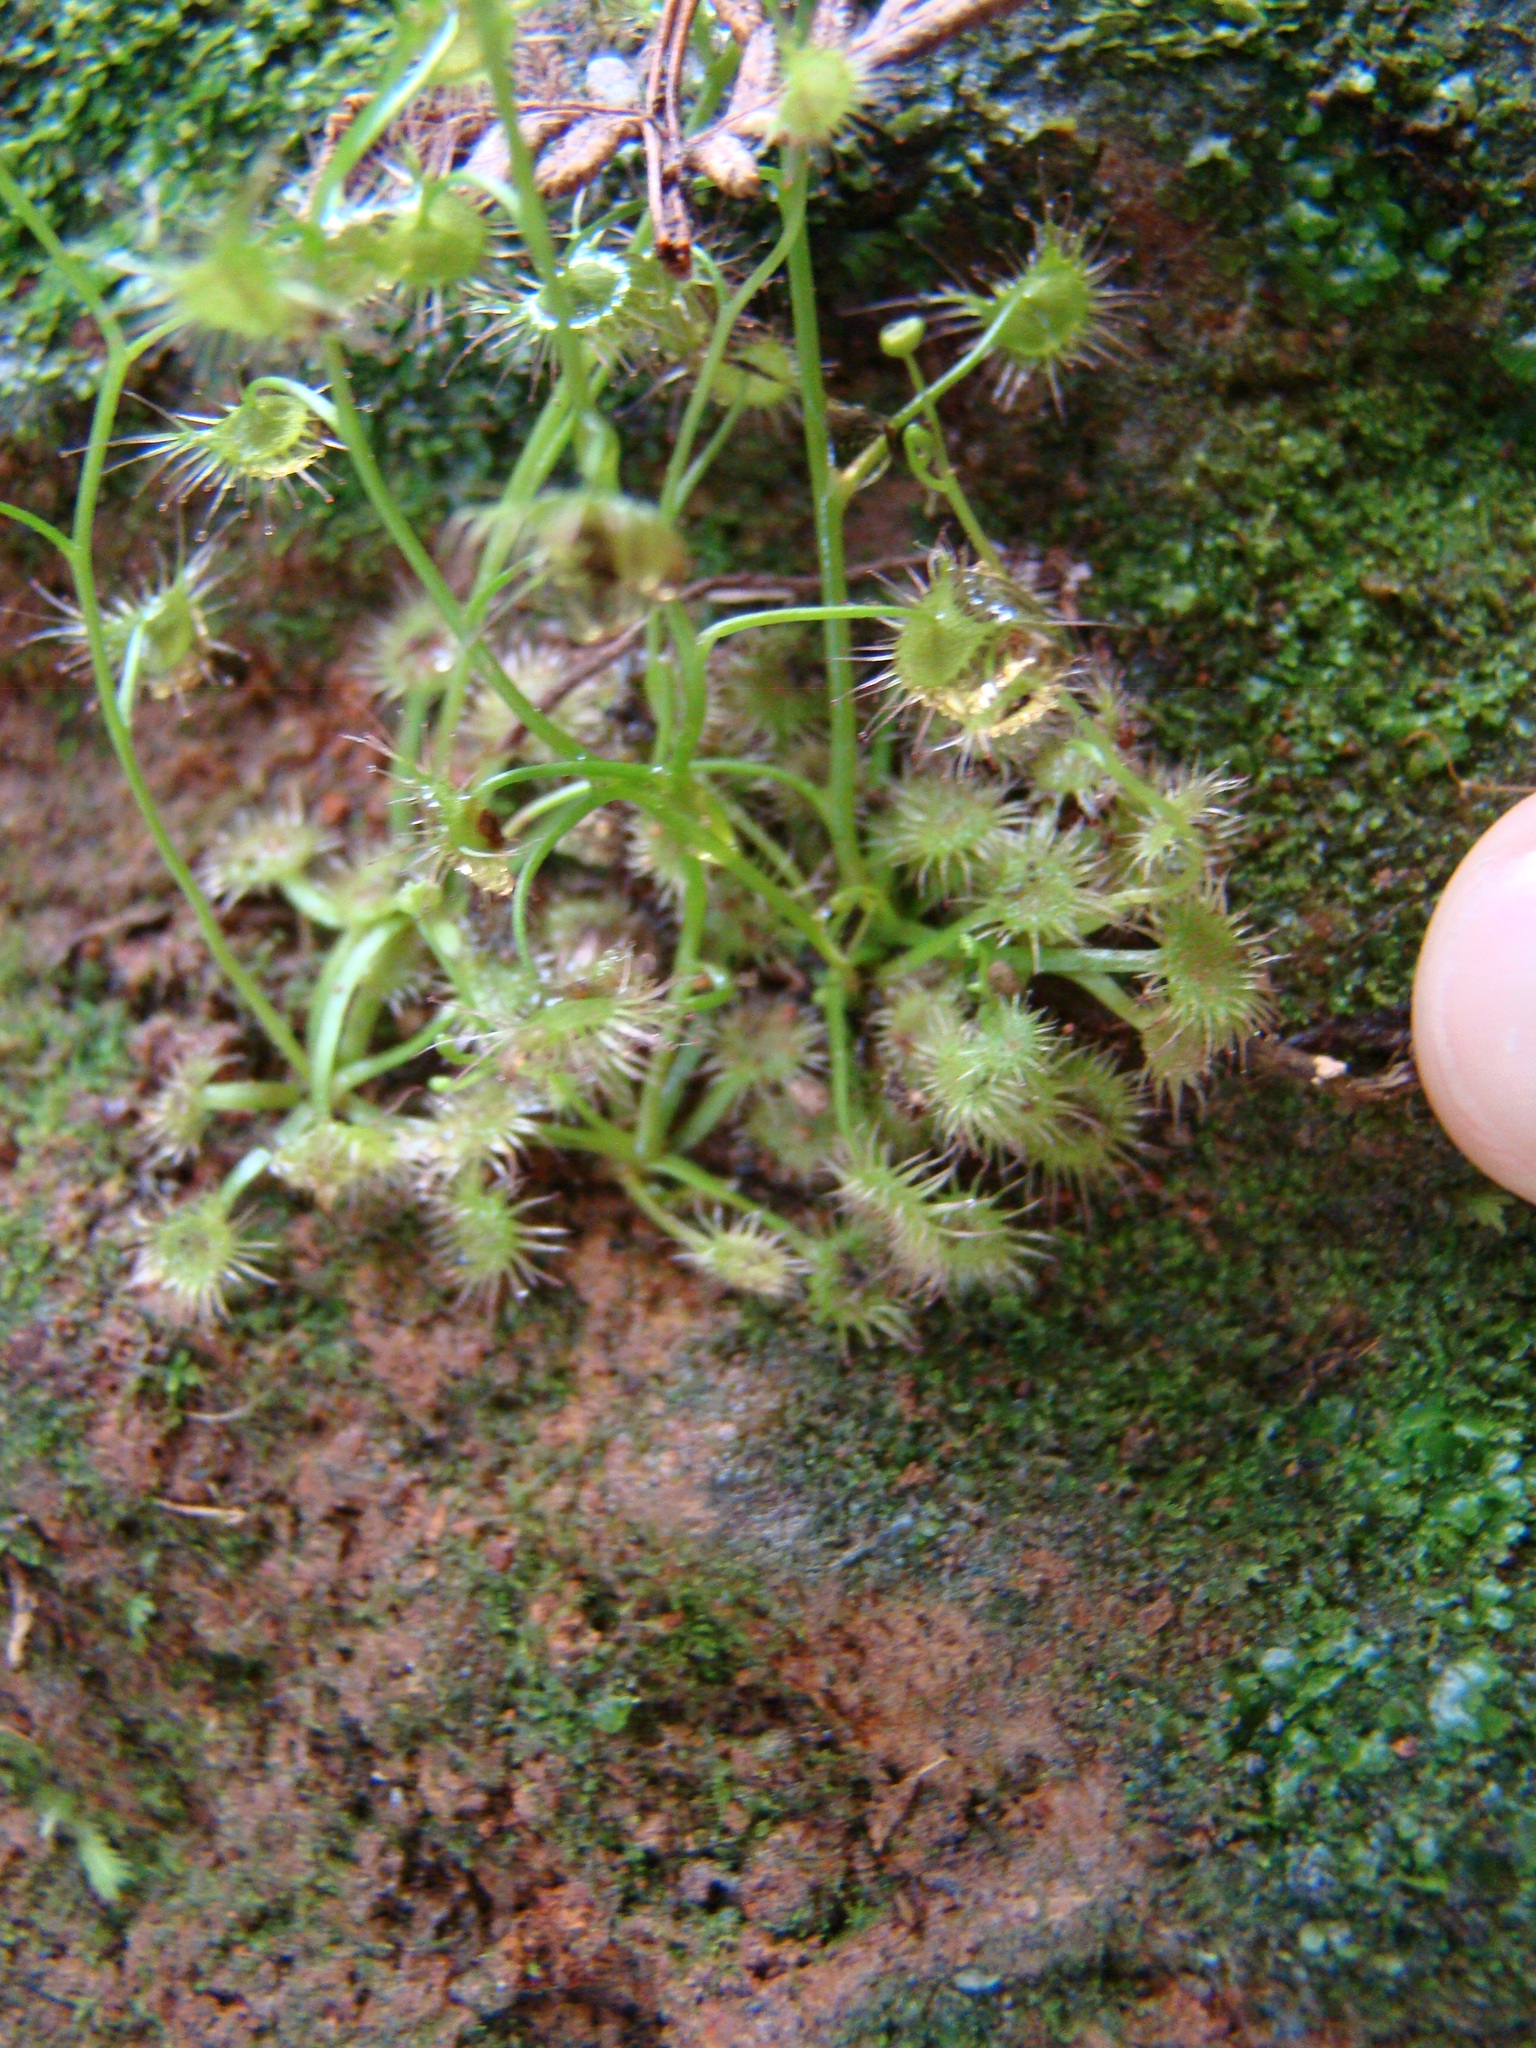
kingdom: Plantae
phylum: Tracheophyta
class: Magnoliopsida
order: Caryophyllales
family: Droseraceae
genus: Drosera
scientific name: Drosera peltata
